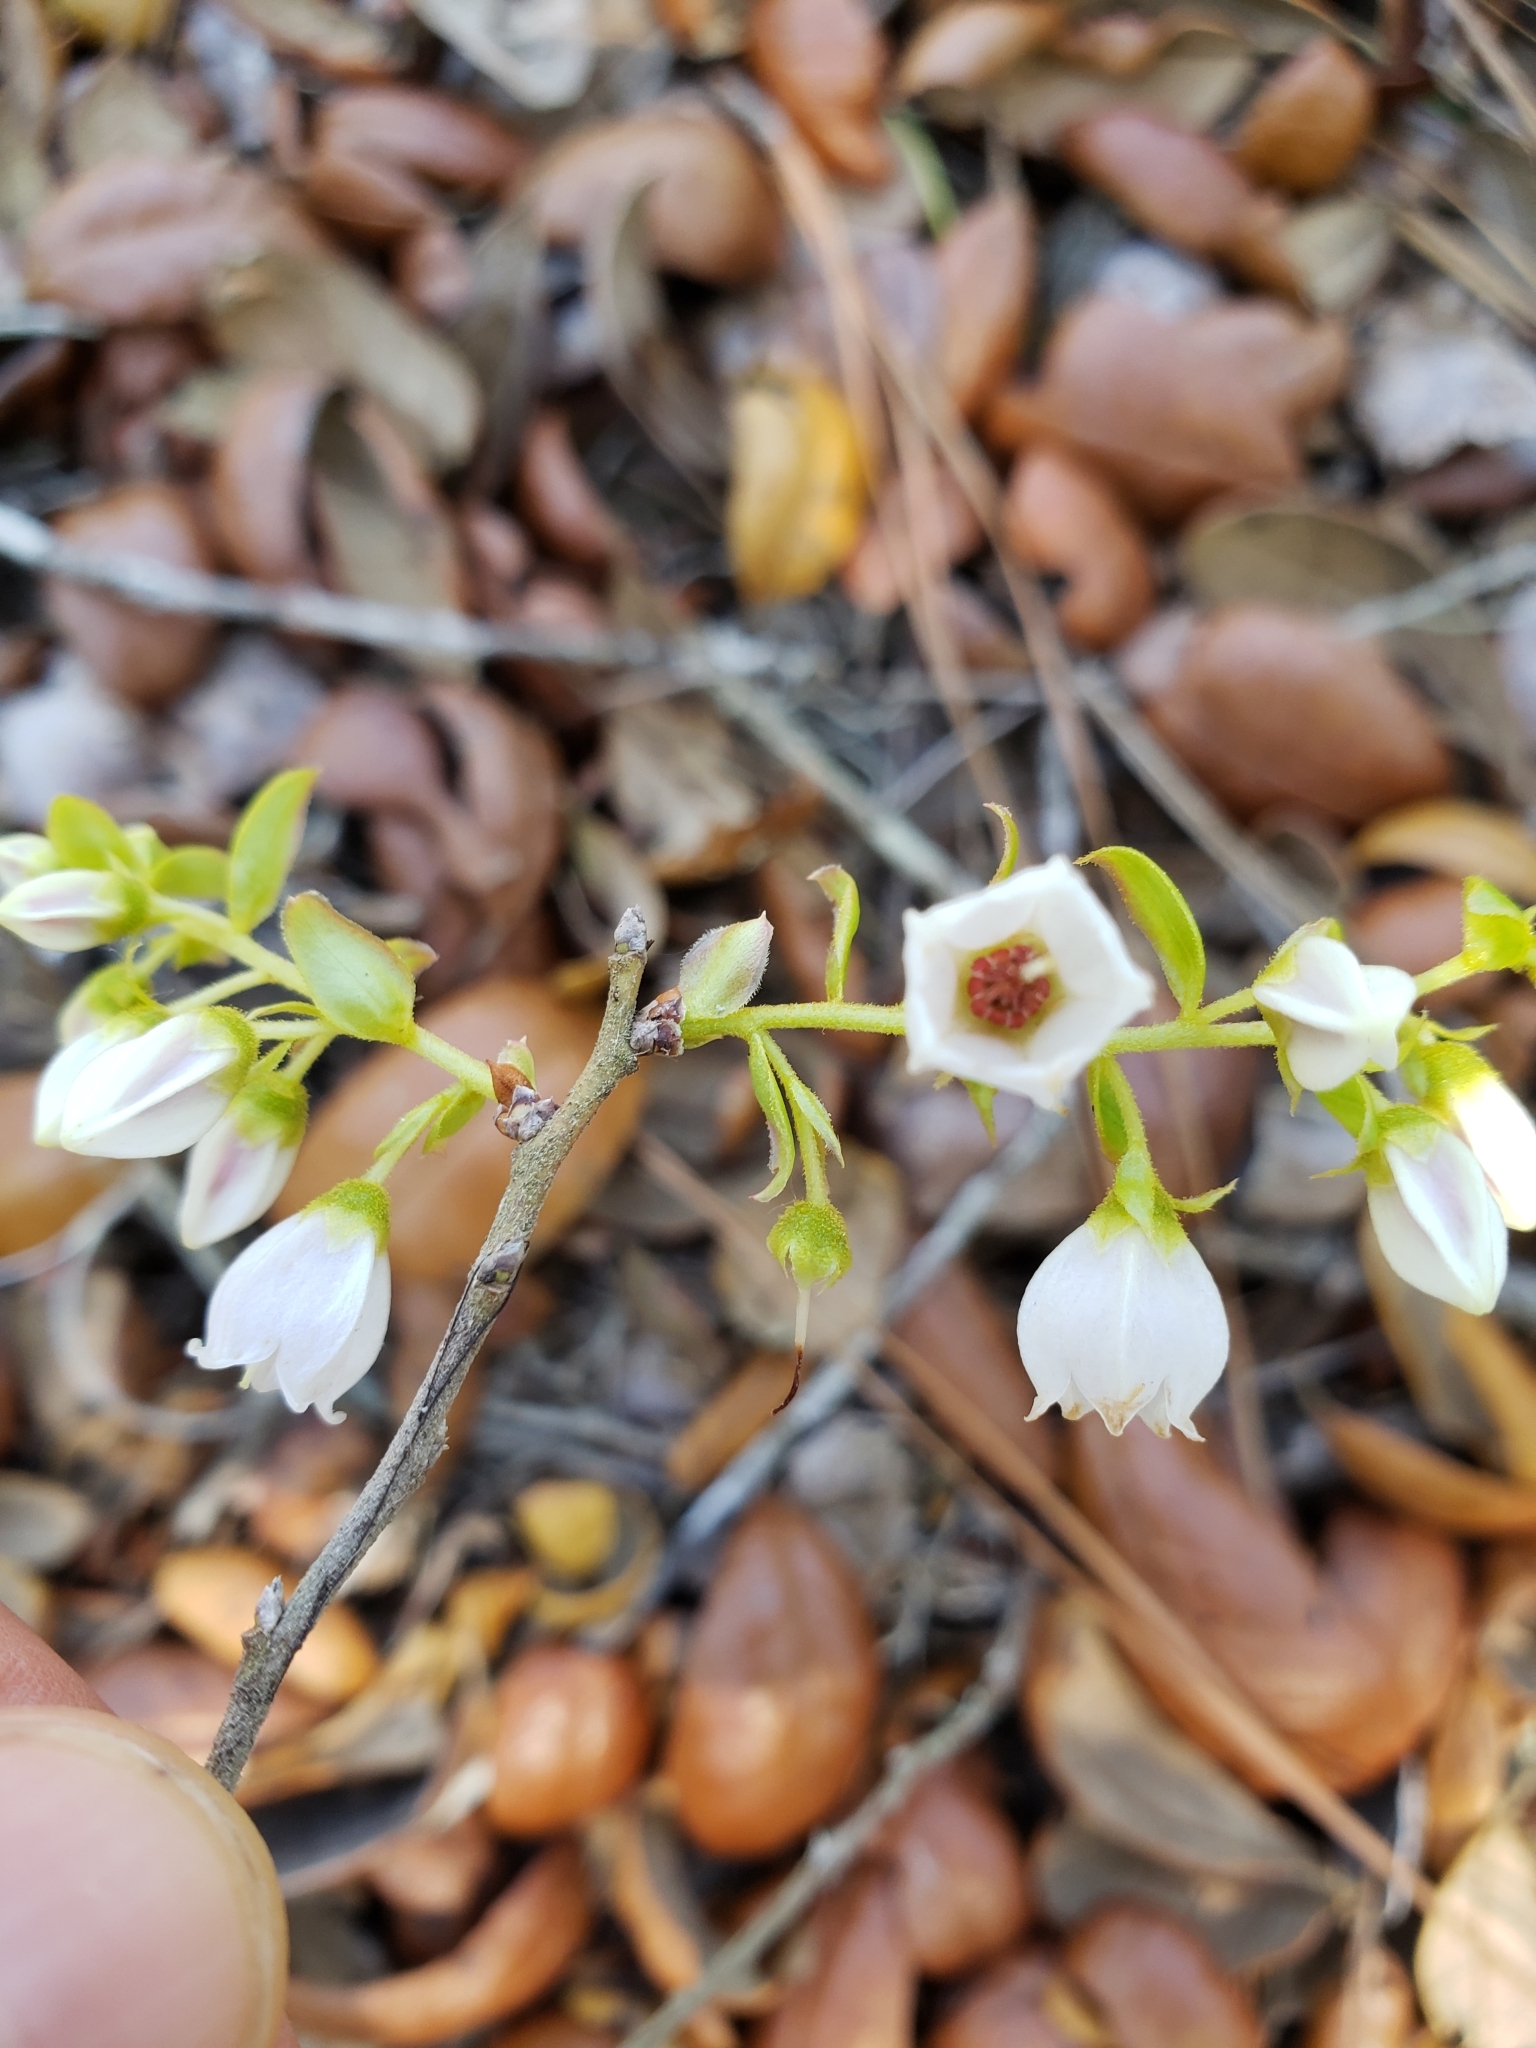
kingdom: Plantae
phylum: Tracheophyta
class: Magnoliopsida
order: Ericales
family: Ericaceae
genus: Gaylussacia
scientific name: Gaylussacia dumosa
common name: Dwarf huckleberry
